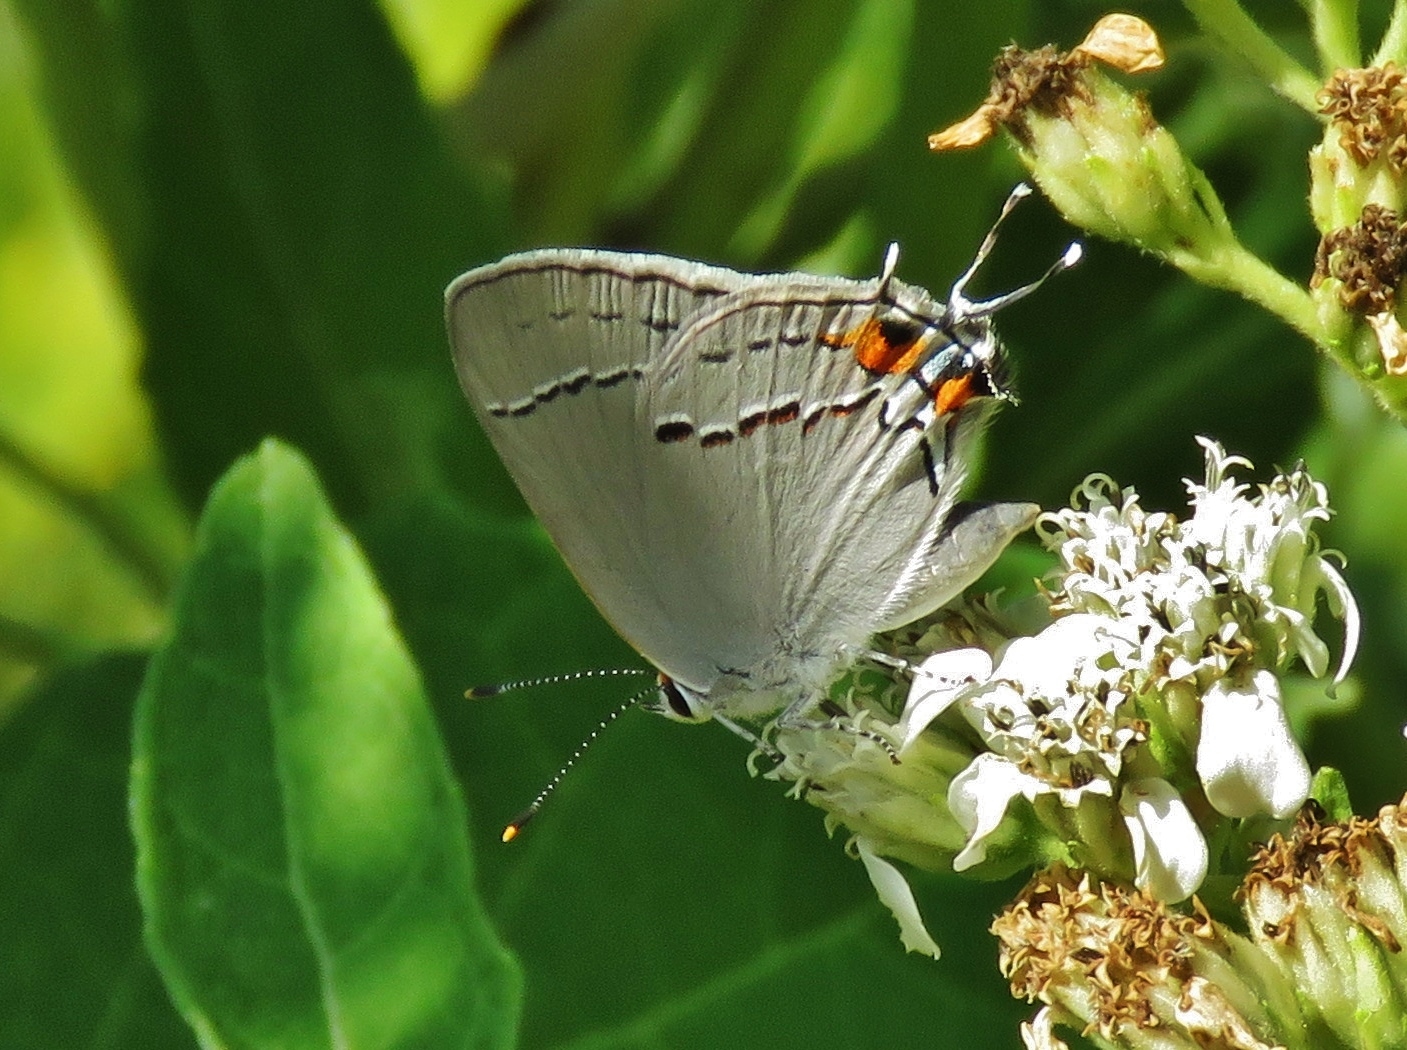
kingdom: Animalia
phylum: Arthropoda
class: Insecta
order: Lepidoptera
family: Lycaenidae
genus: Strymon
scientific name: Strymon melinus
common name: Gray hairstreak
